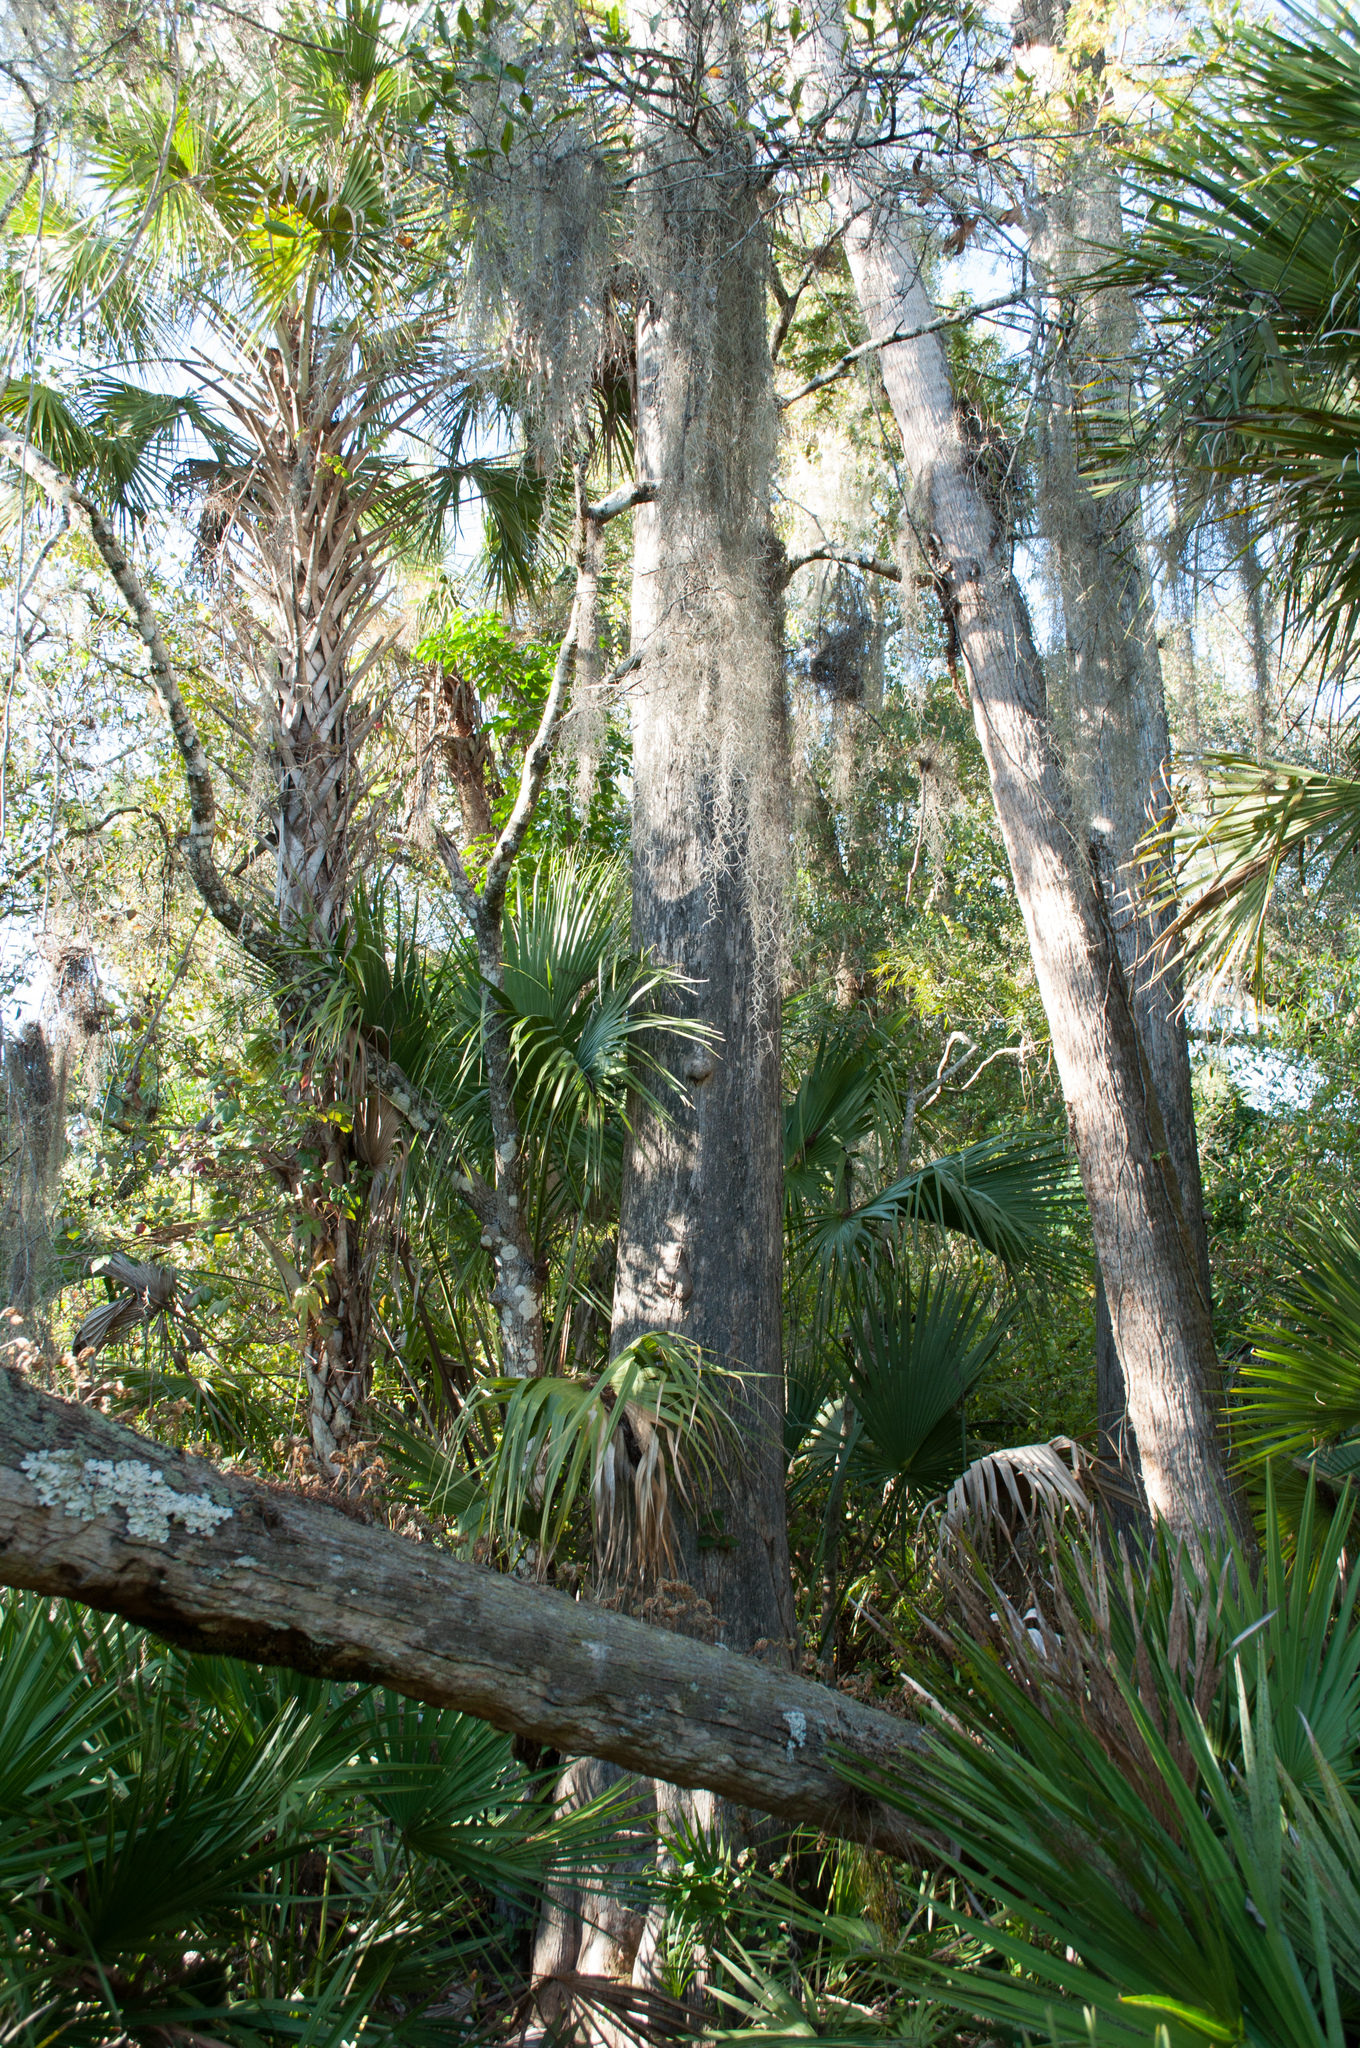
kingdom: Plantae
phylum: Tracheophyta
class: Liliopsida
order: Arecales
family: Arecaceae
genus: Sabal
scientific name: Sabal palmetto
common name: Blue palmetto
